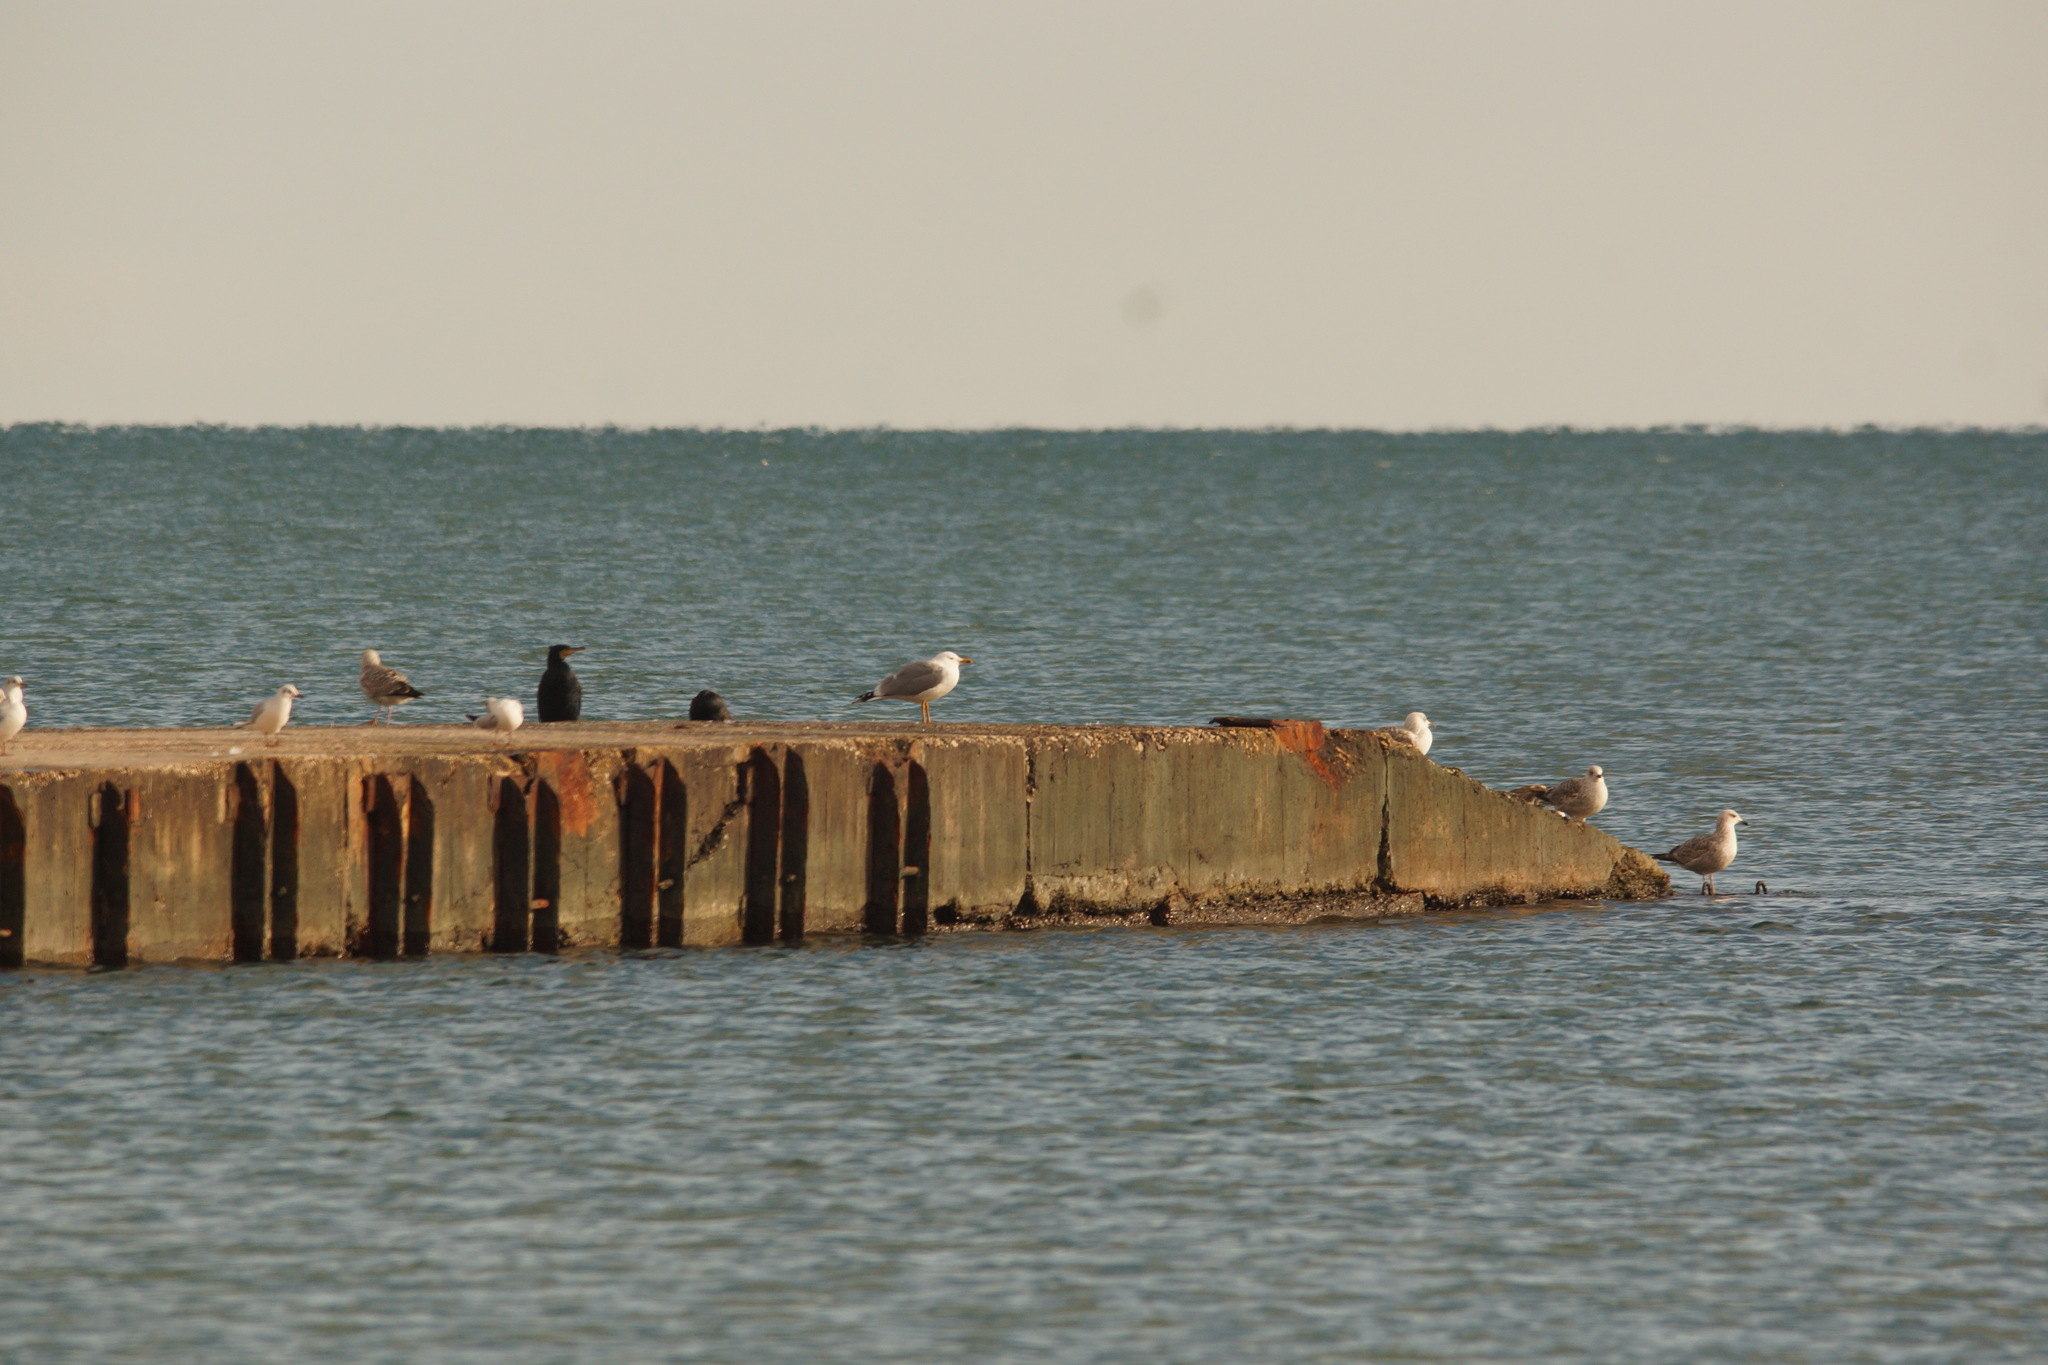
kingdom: Animalia
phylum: Chordata
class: Aves
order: Charadriiformes
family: Laridae
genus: Larus
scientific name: Larus michahellis
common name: Yellow-legged gull
